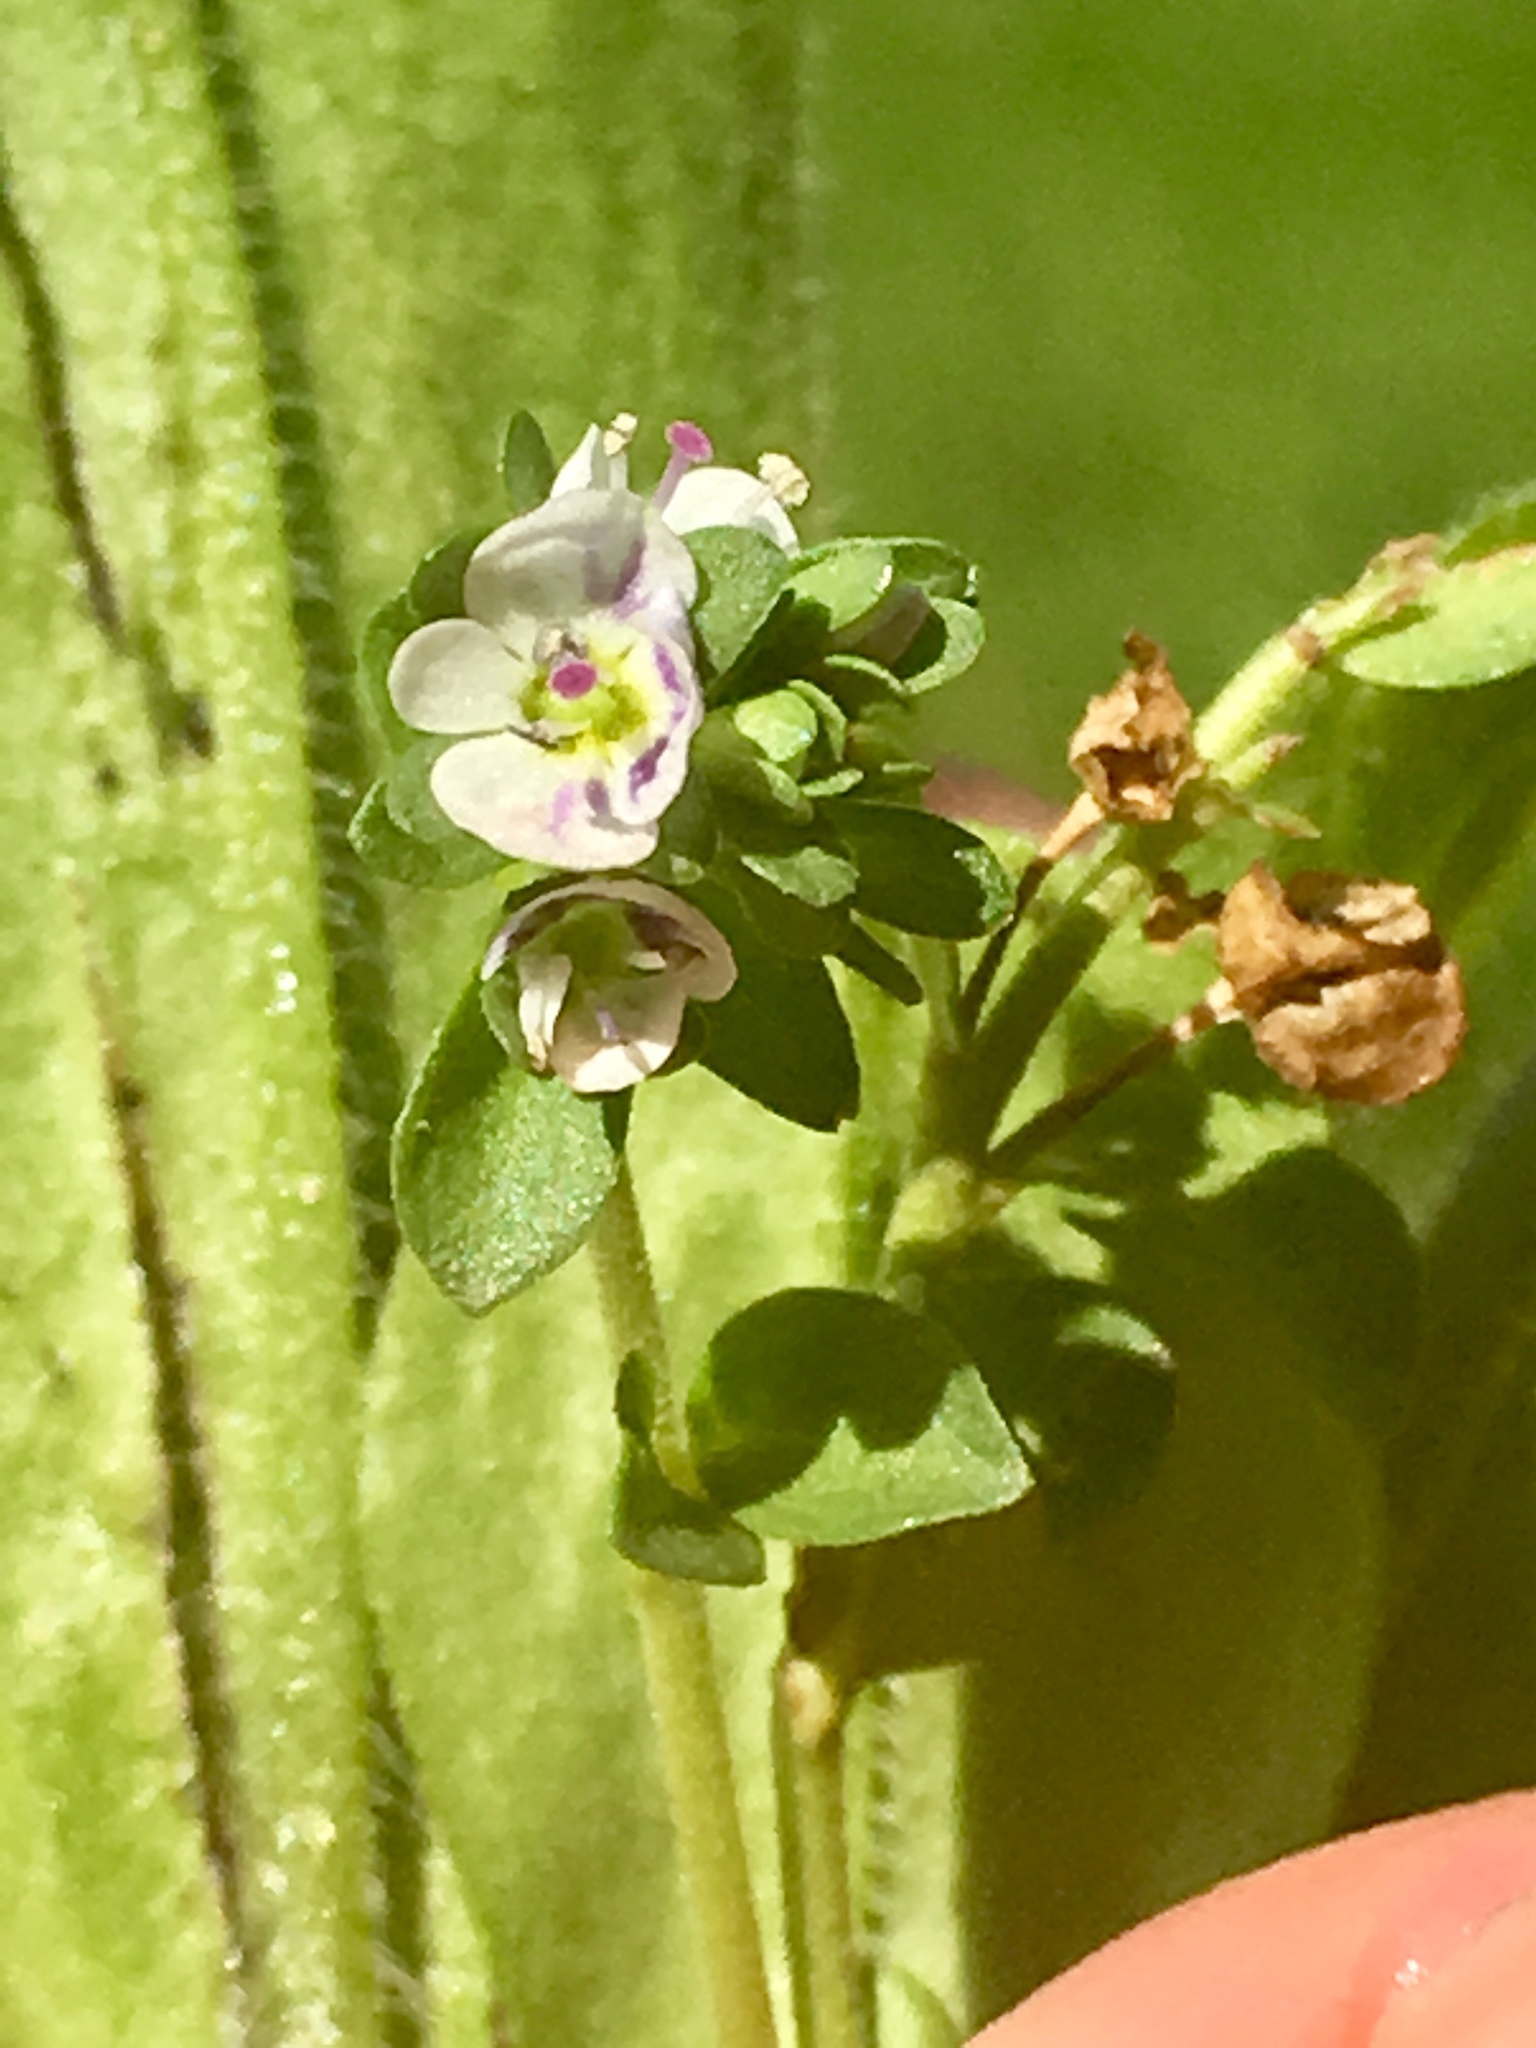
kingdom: Plantae
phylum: Tracheophyta
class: Magnoliopsida
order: Lamiales
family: Plantaginaceae
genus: Veronica
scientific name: Veronica serpyllifolia
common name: Thyme-leaved speedwell
